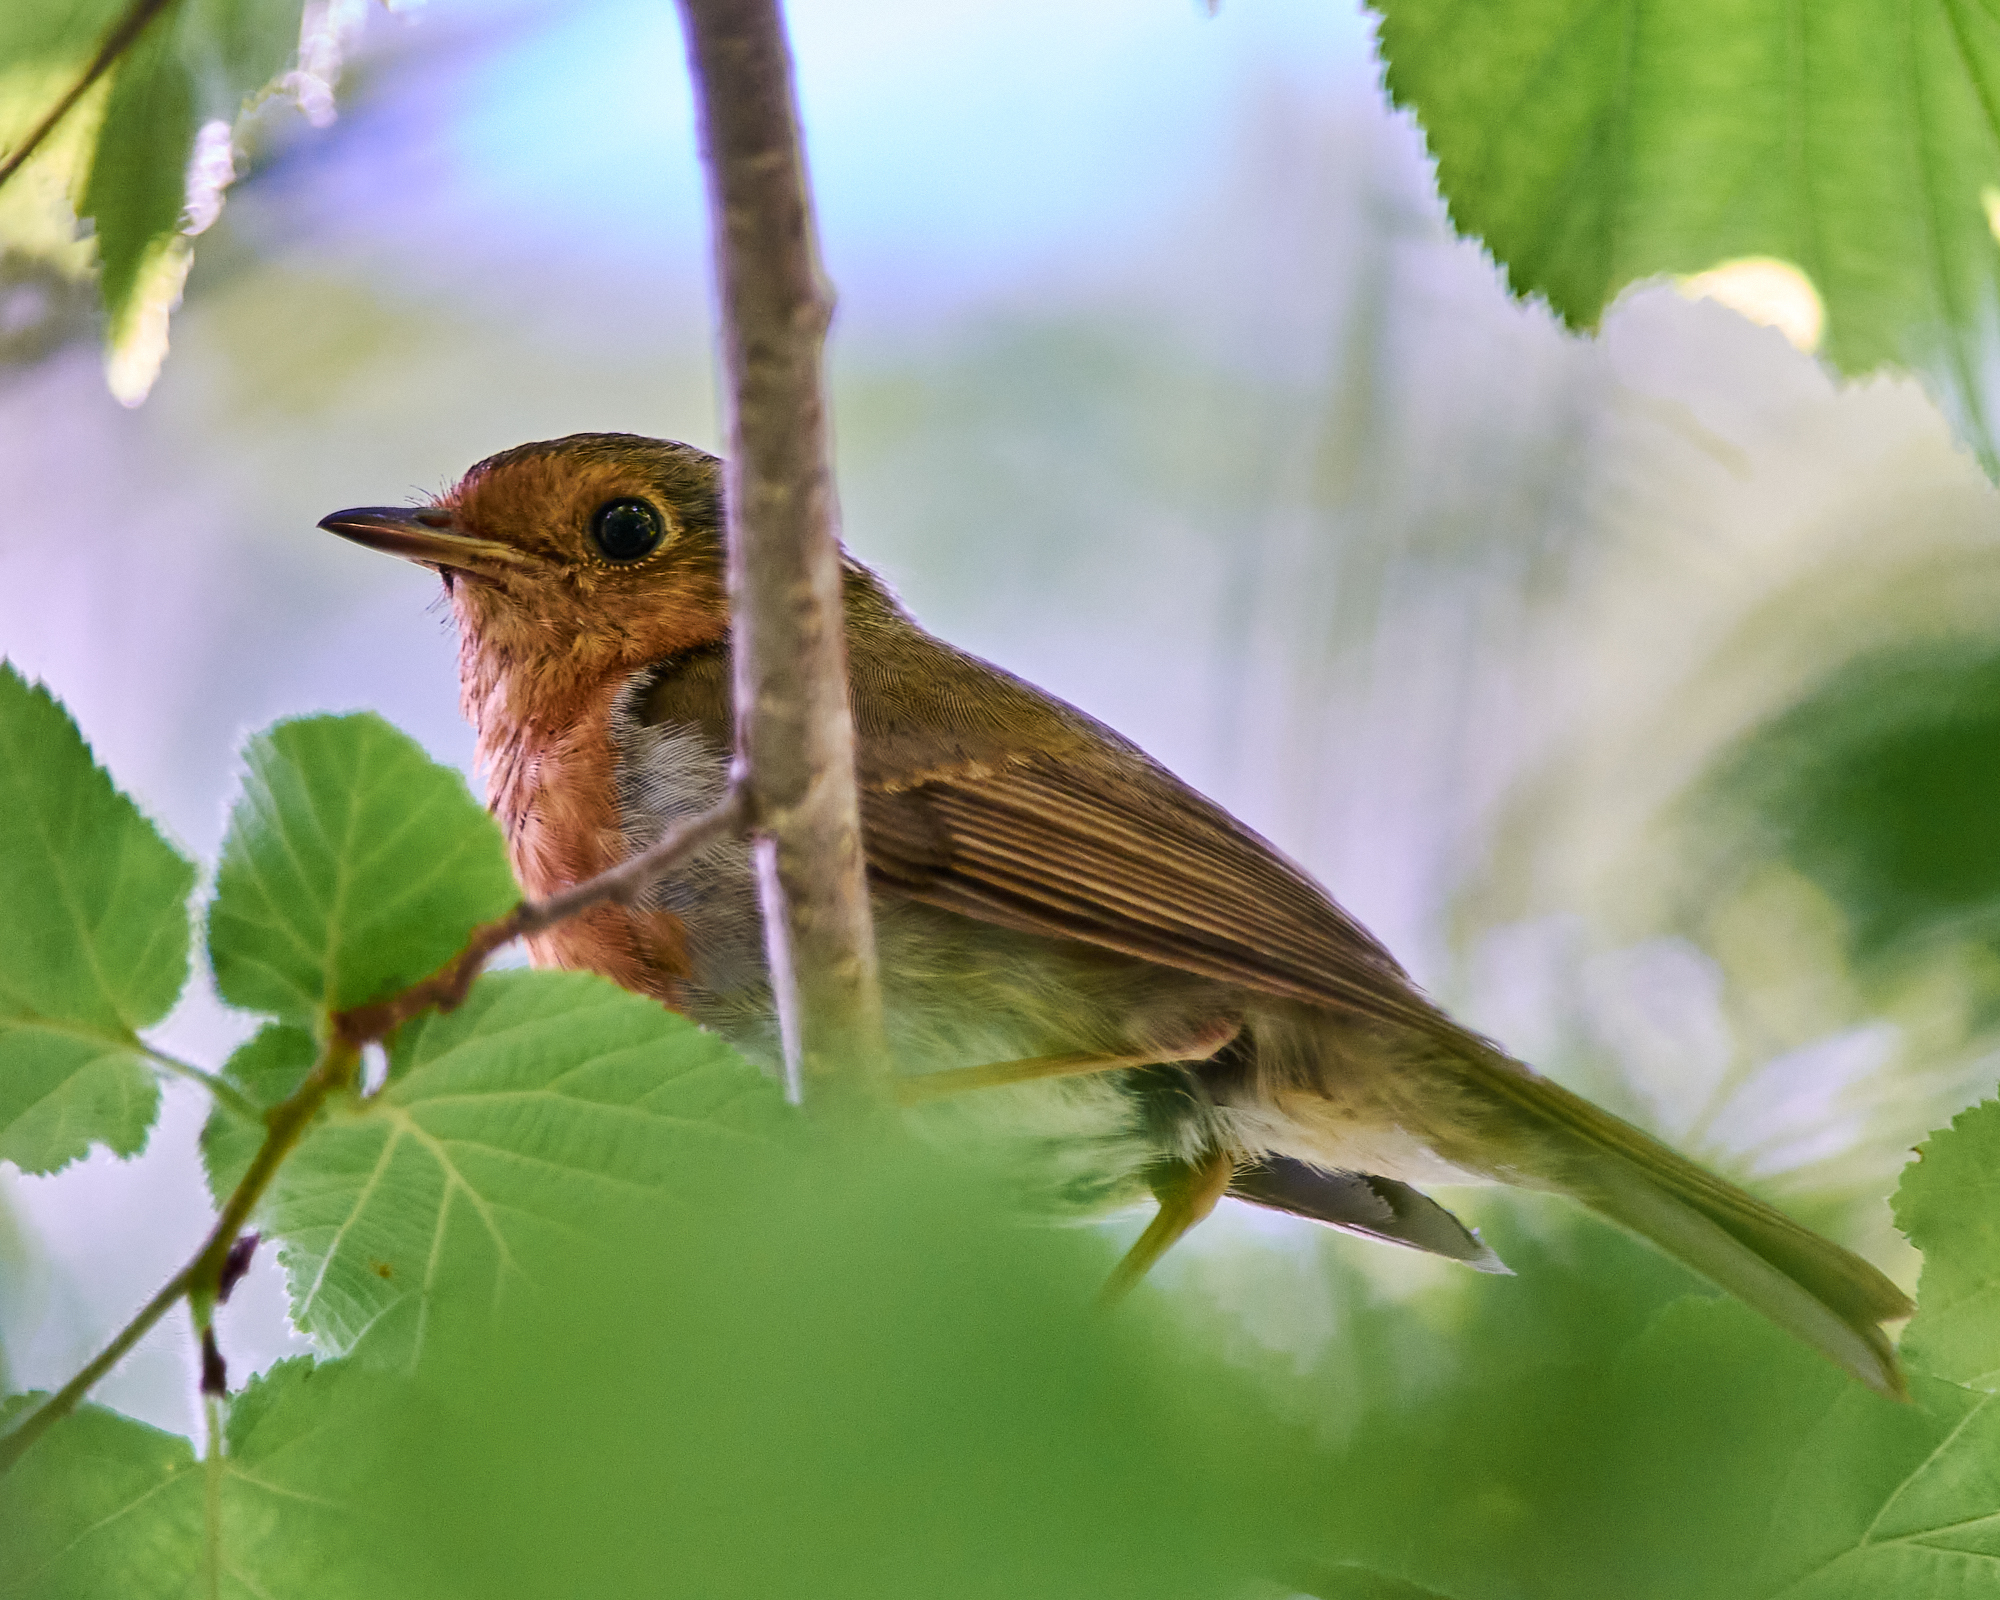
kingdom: Animalia
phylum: Chordata
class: Aves
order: Passeriformes
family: Muscicapidae
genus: Erithacus
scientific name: Erithacus rubecula
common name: European robin
